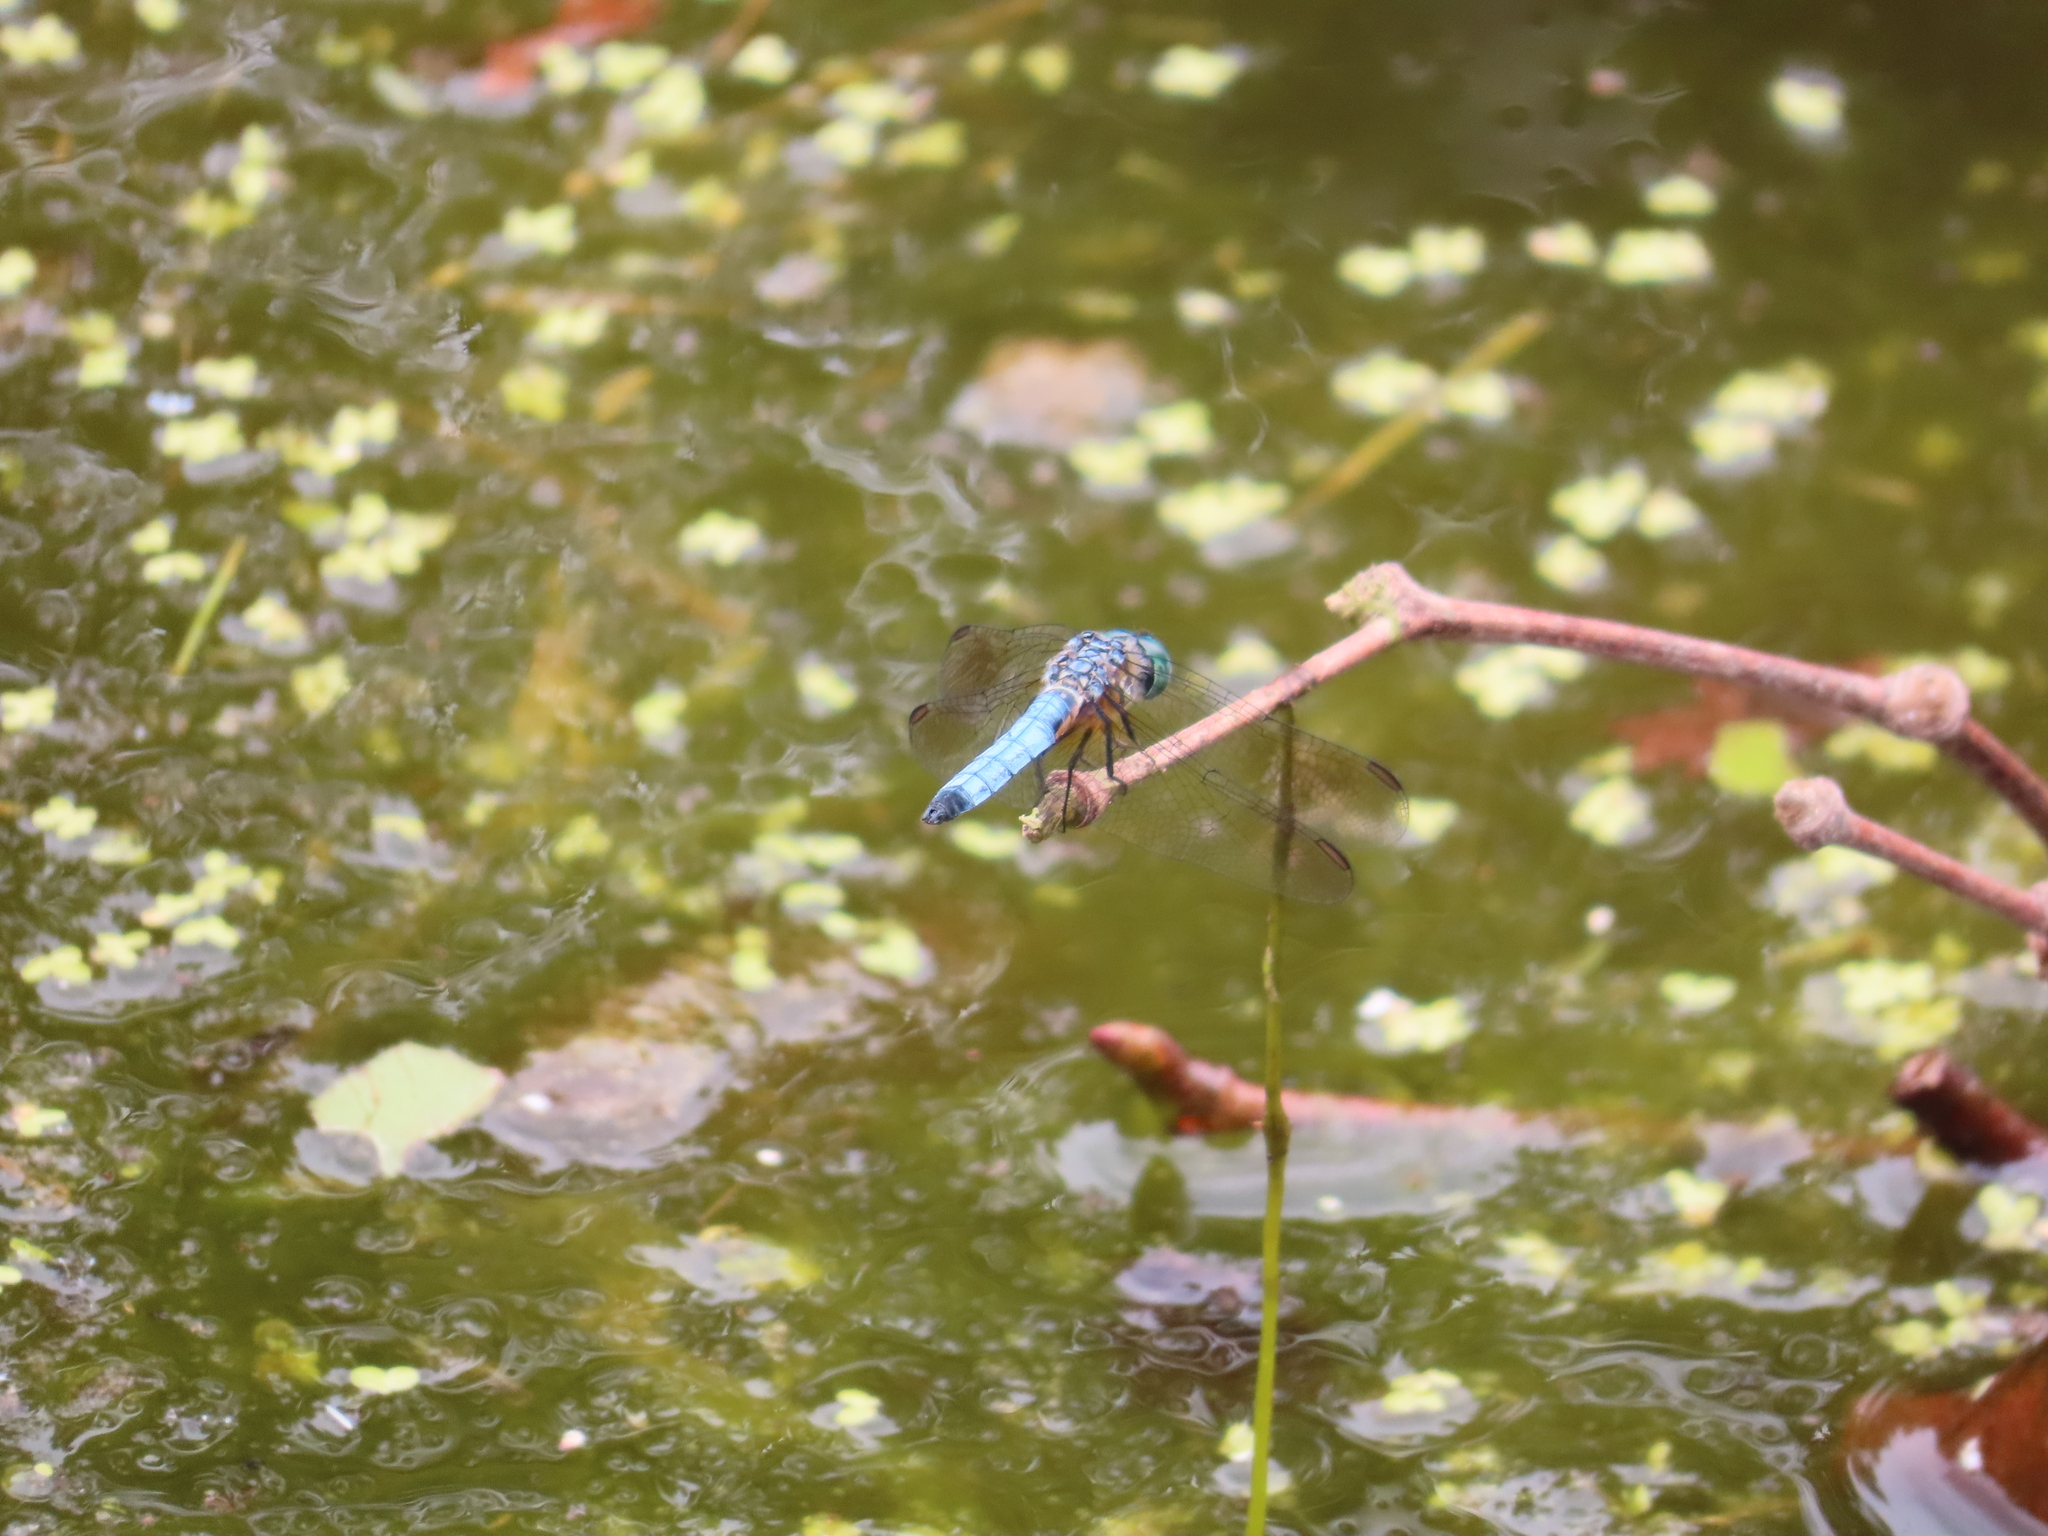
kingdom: Animalia
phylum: Arthropoda
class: Insecta
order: Odonata
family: Libellulidae
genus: Pachydiplax
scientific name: Pachydiplax longipennis
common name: Blue dasher
